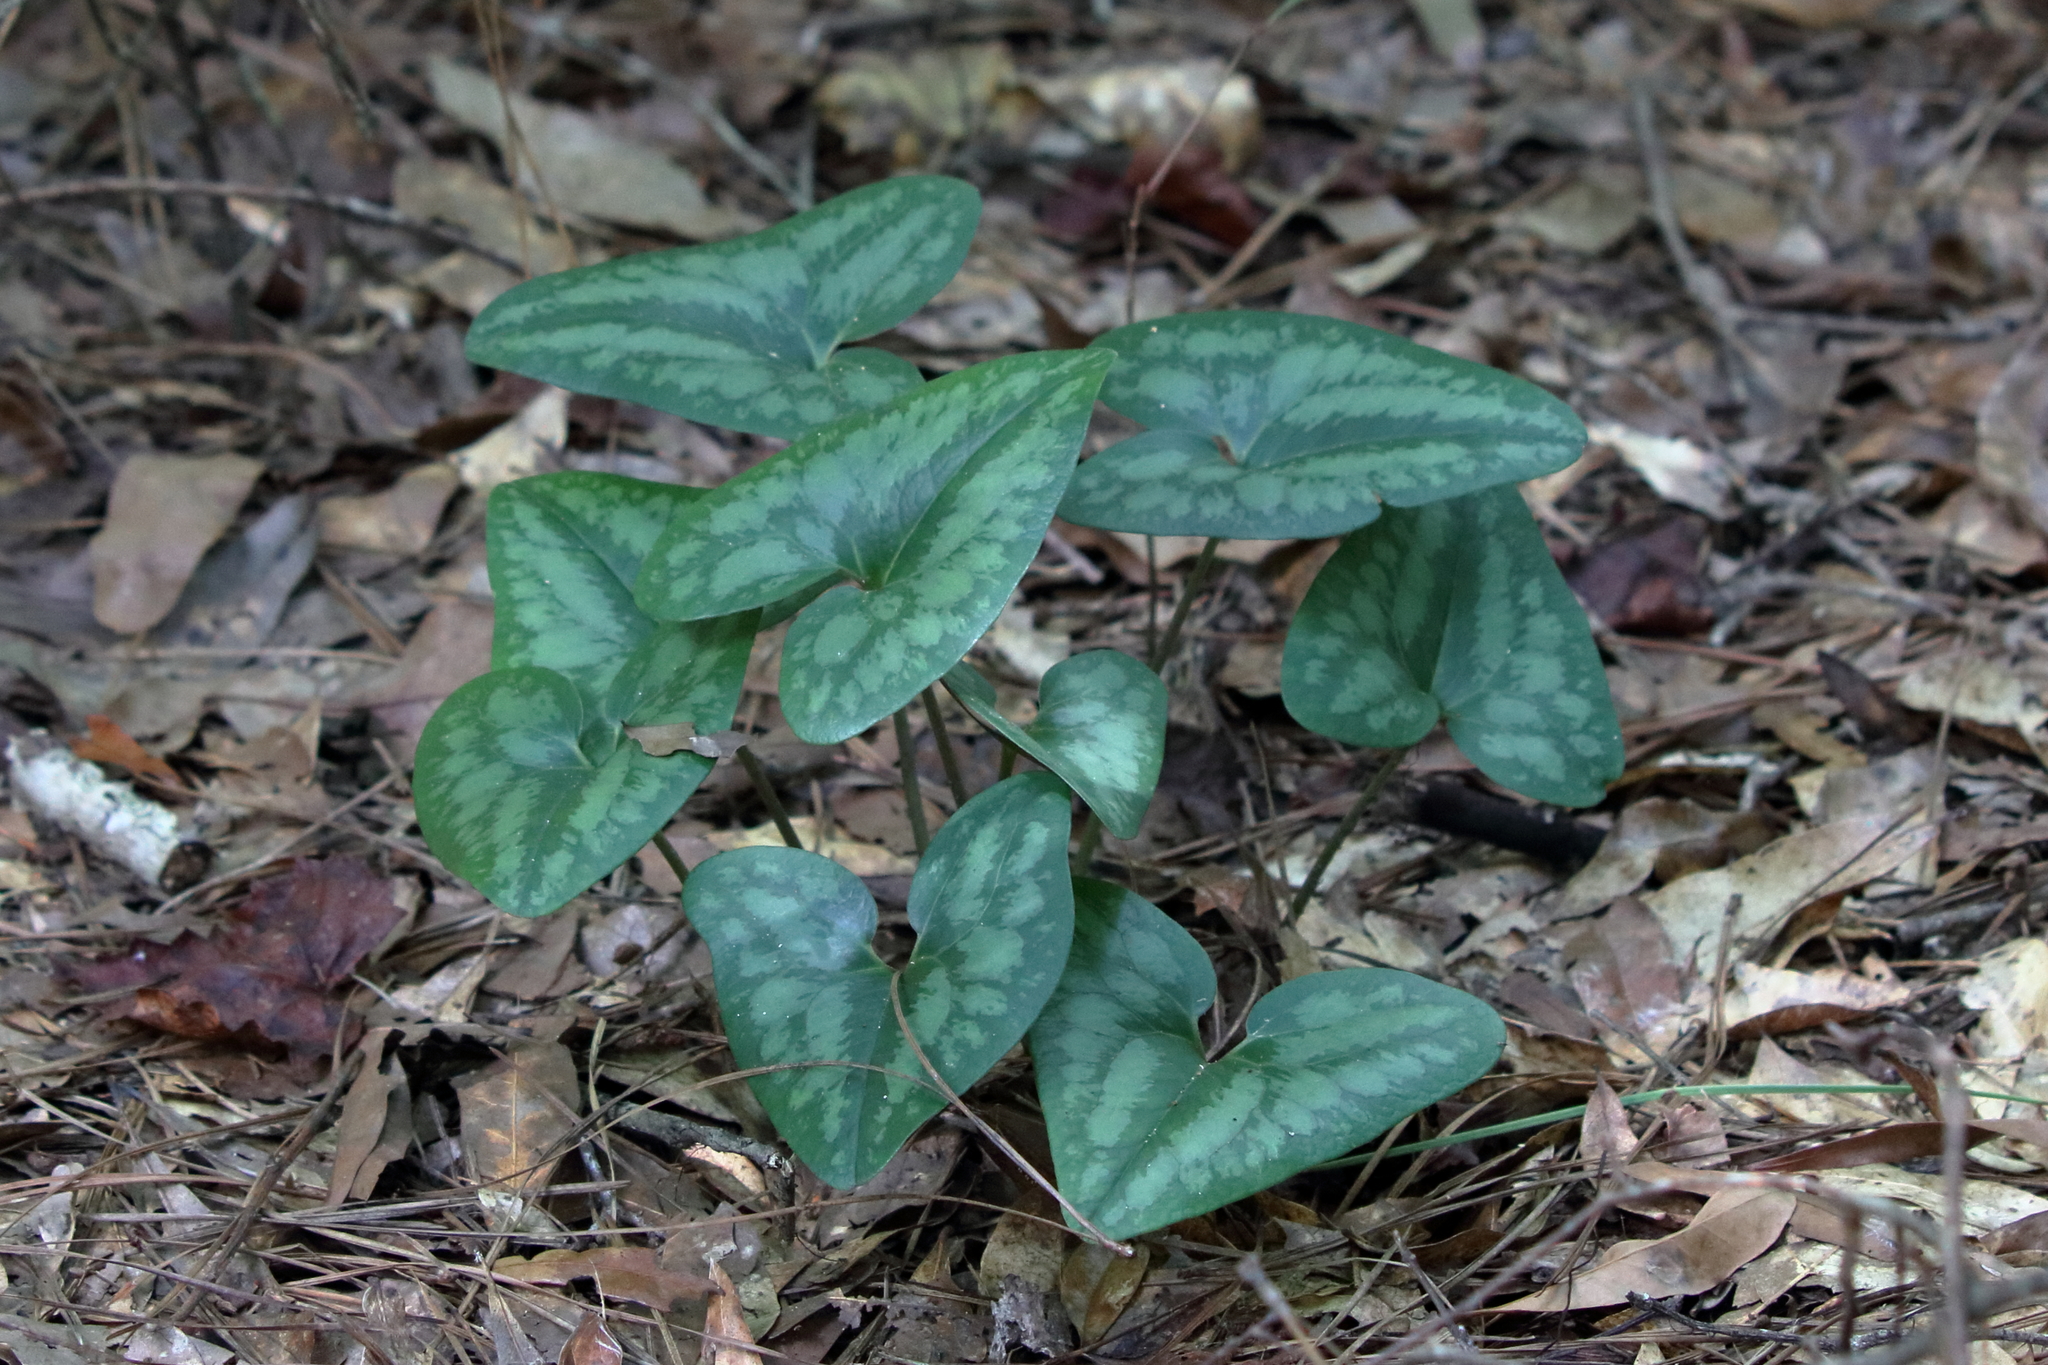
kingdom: Plantae
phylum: Tracheophyta
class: Magnoliopsida
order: Piperales
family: Aristolochiaceae
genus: Hexastylis
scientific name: Hexastylis arifolia
